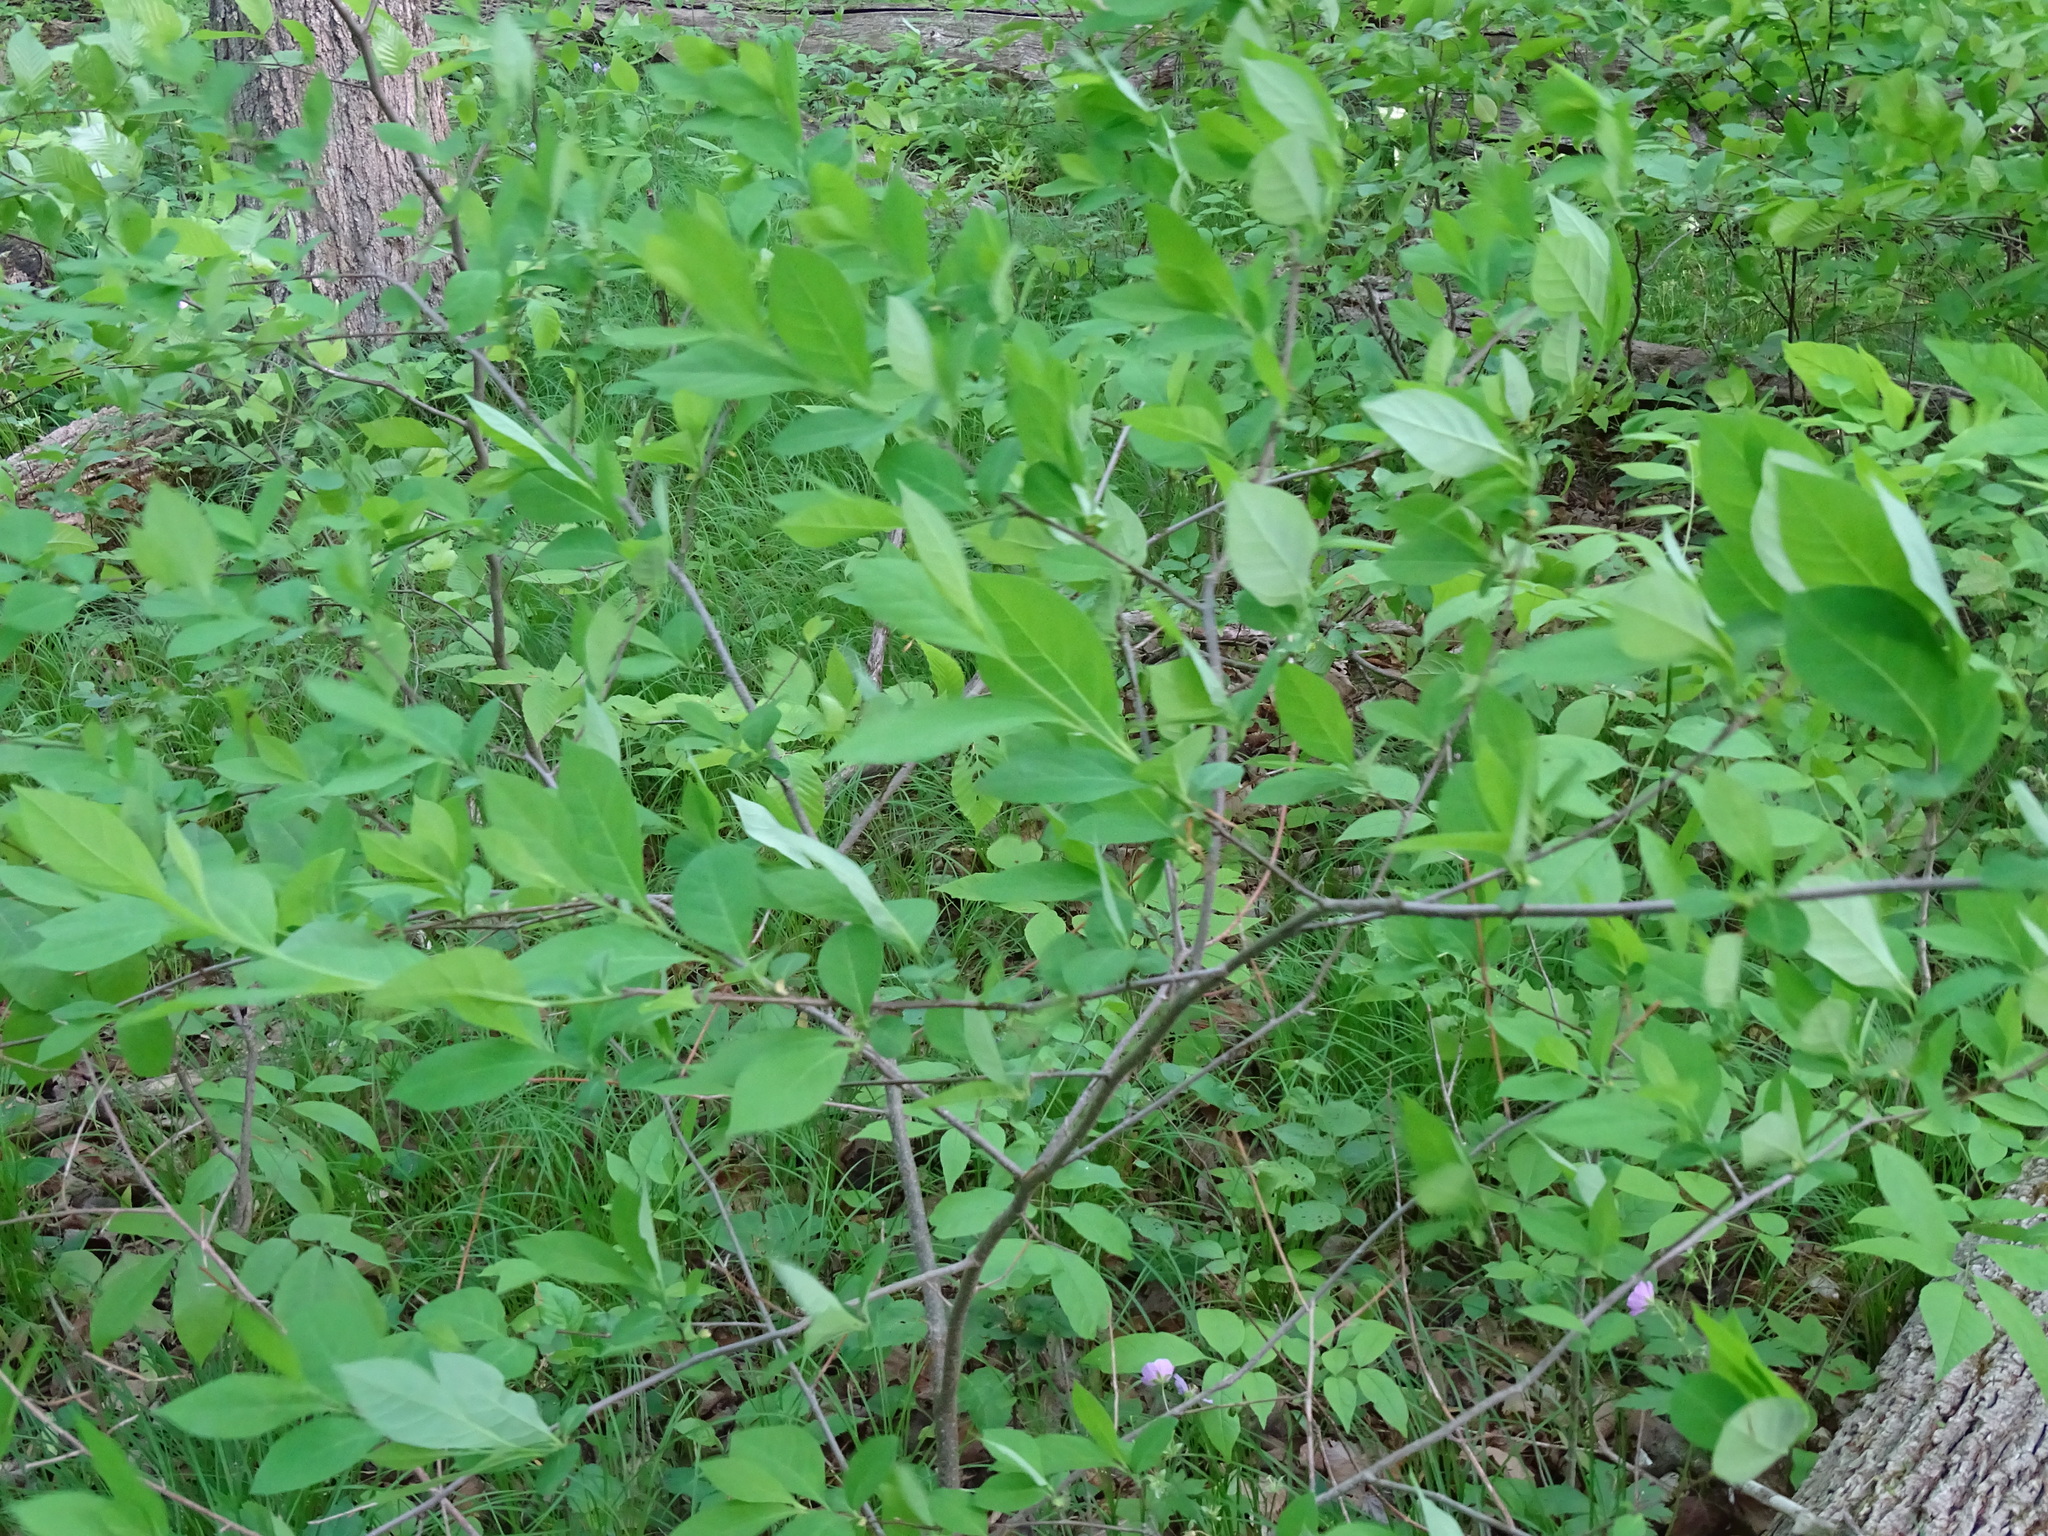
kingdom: Plantae
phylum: Tracheophyta
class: Magnoliopsida
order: Laurales
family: Lauraceae
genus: Lindera
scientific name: Lindera benzoin
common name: Spicebush
